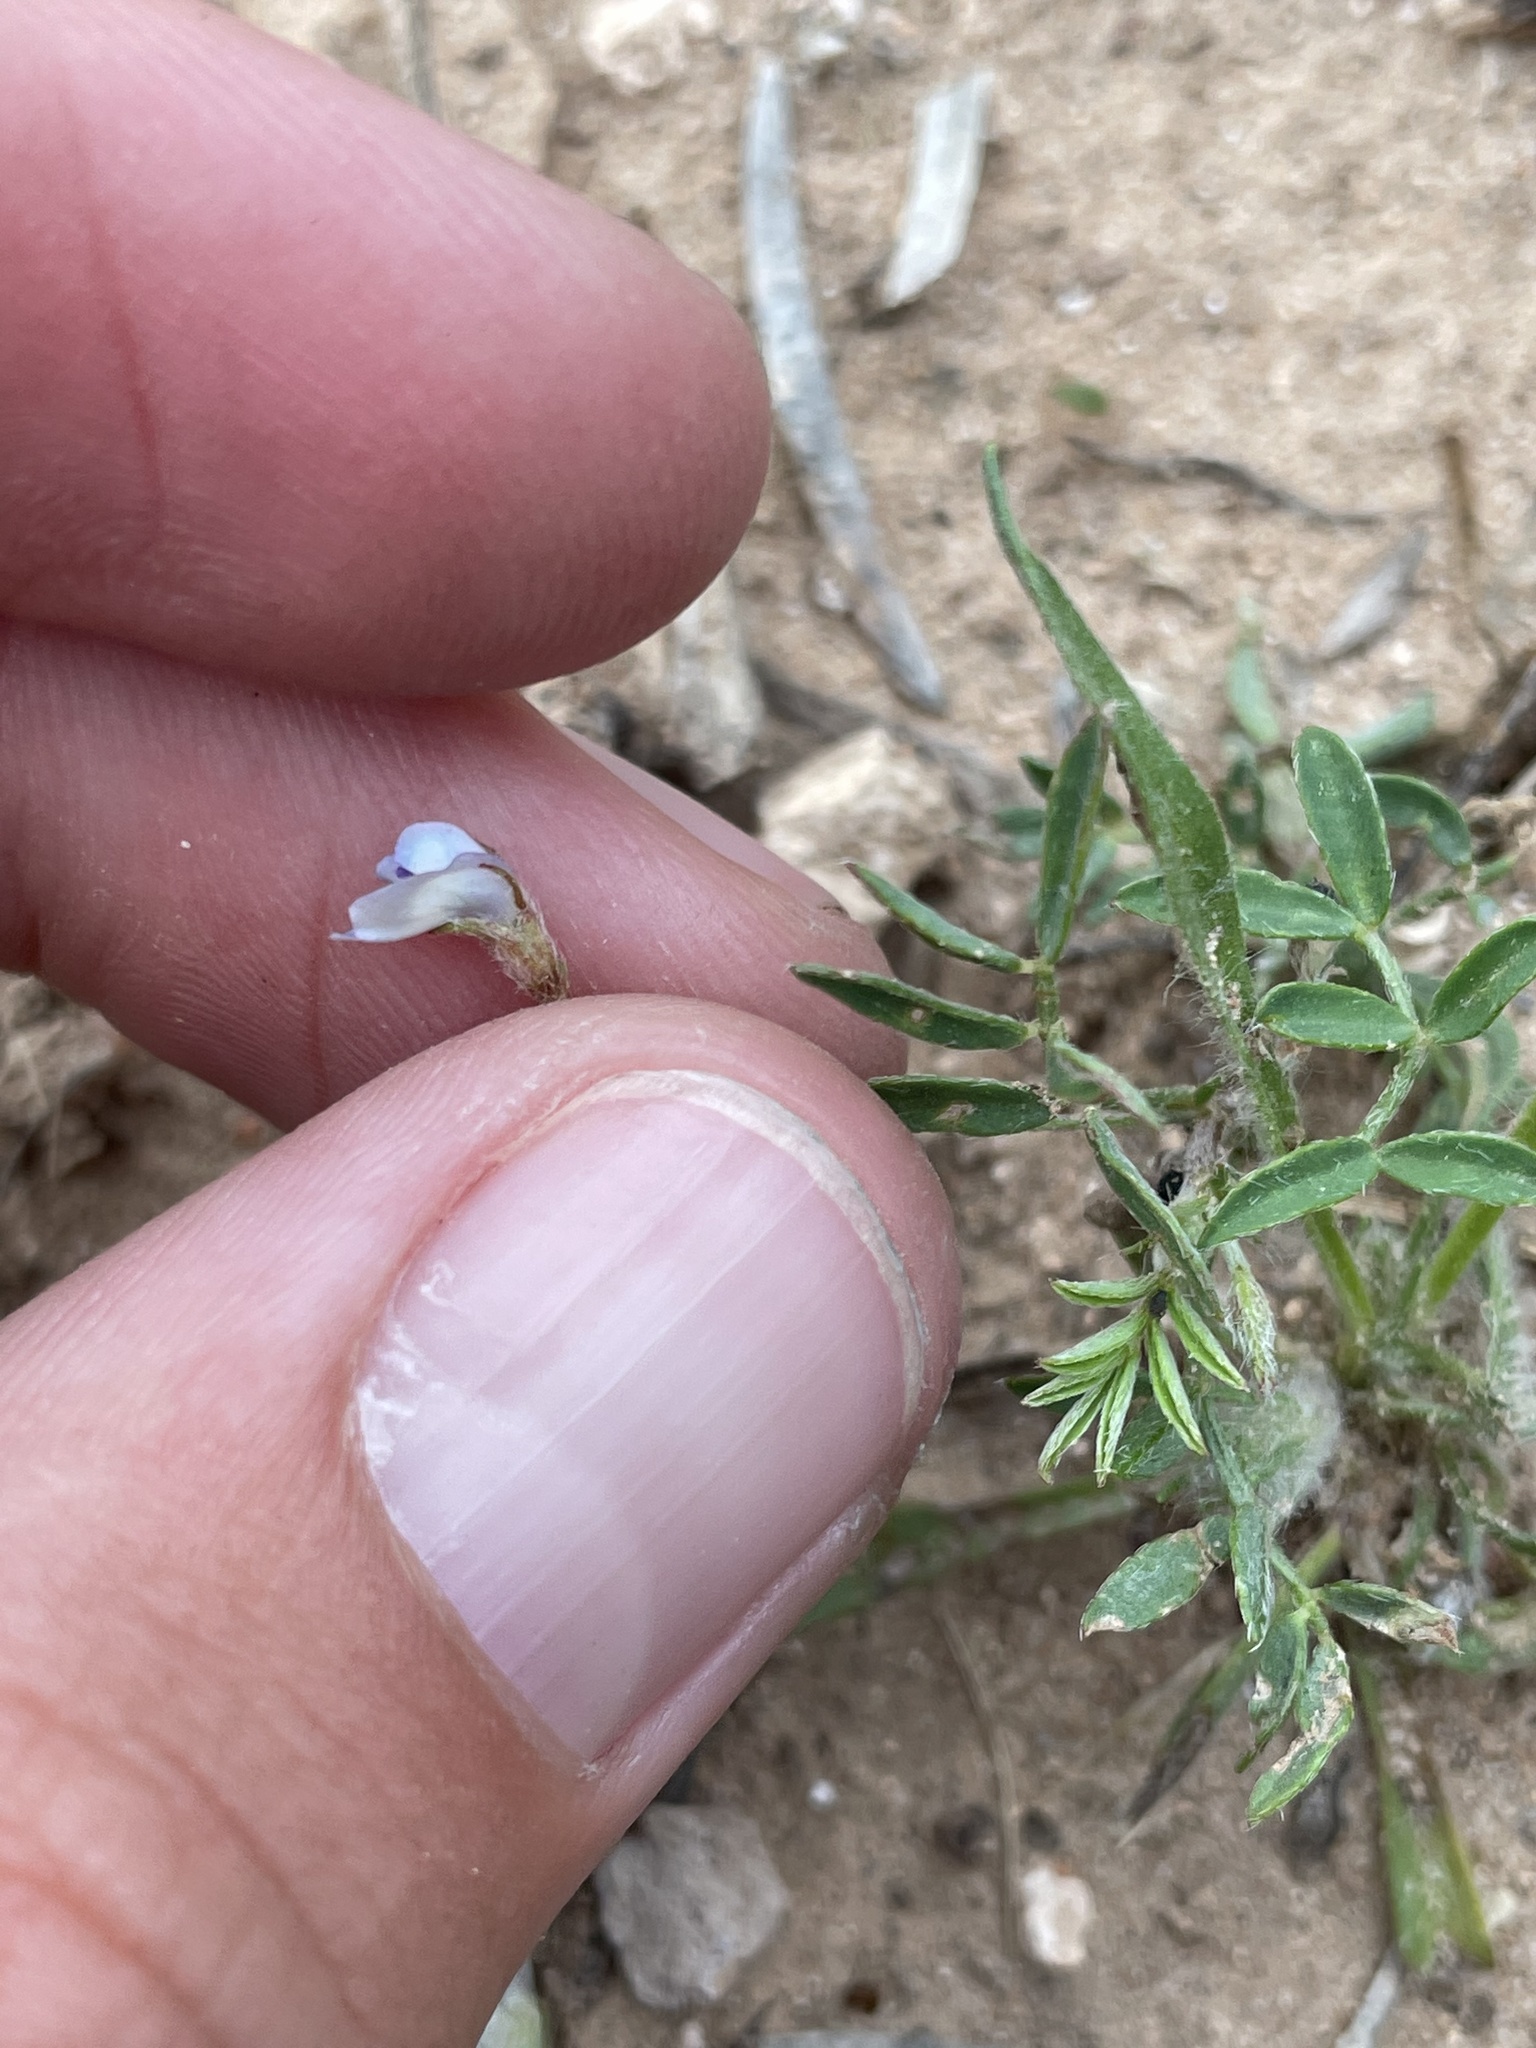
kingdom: Plantae
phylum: Tracheophyta
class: Magnoliopsida
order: Fabales
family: Fabaceae
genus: Astragalus
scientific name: Astragalus nuttallianus
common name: Smallflowered milkvetch
